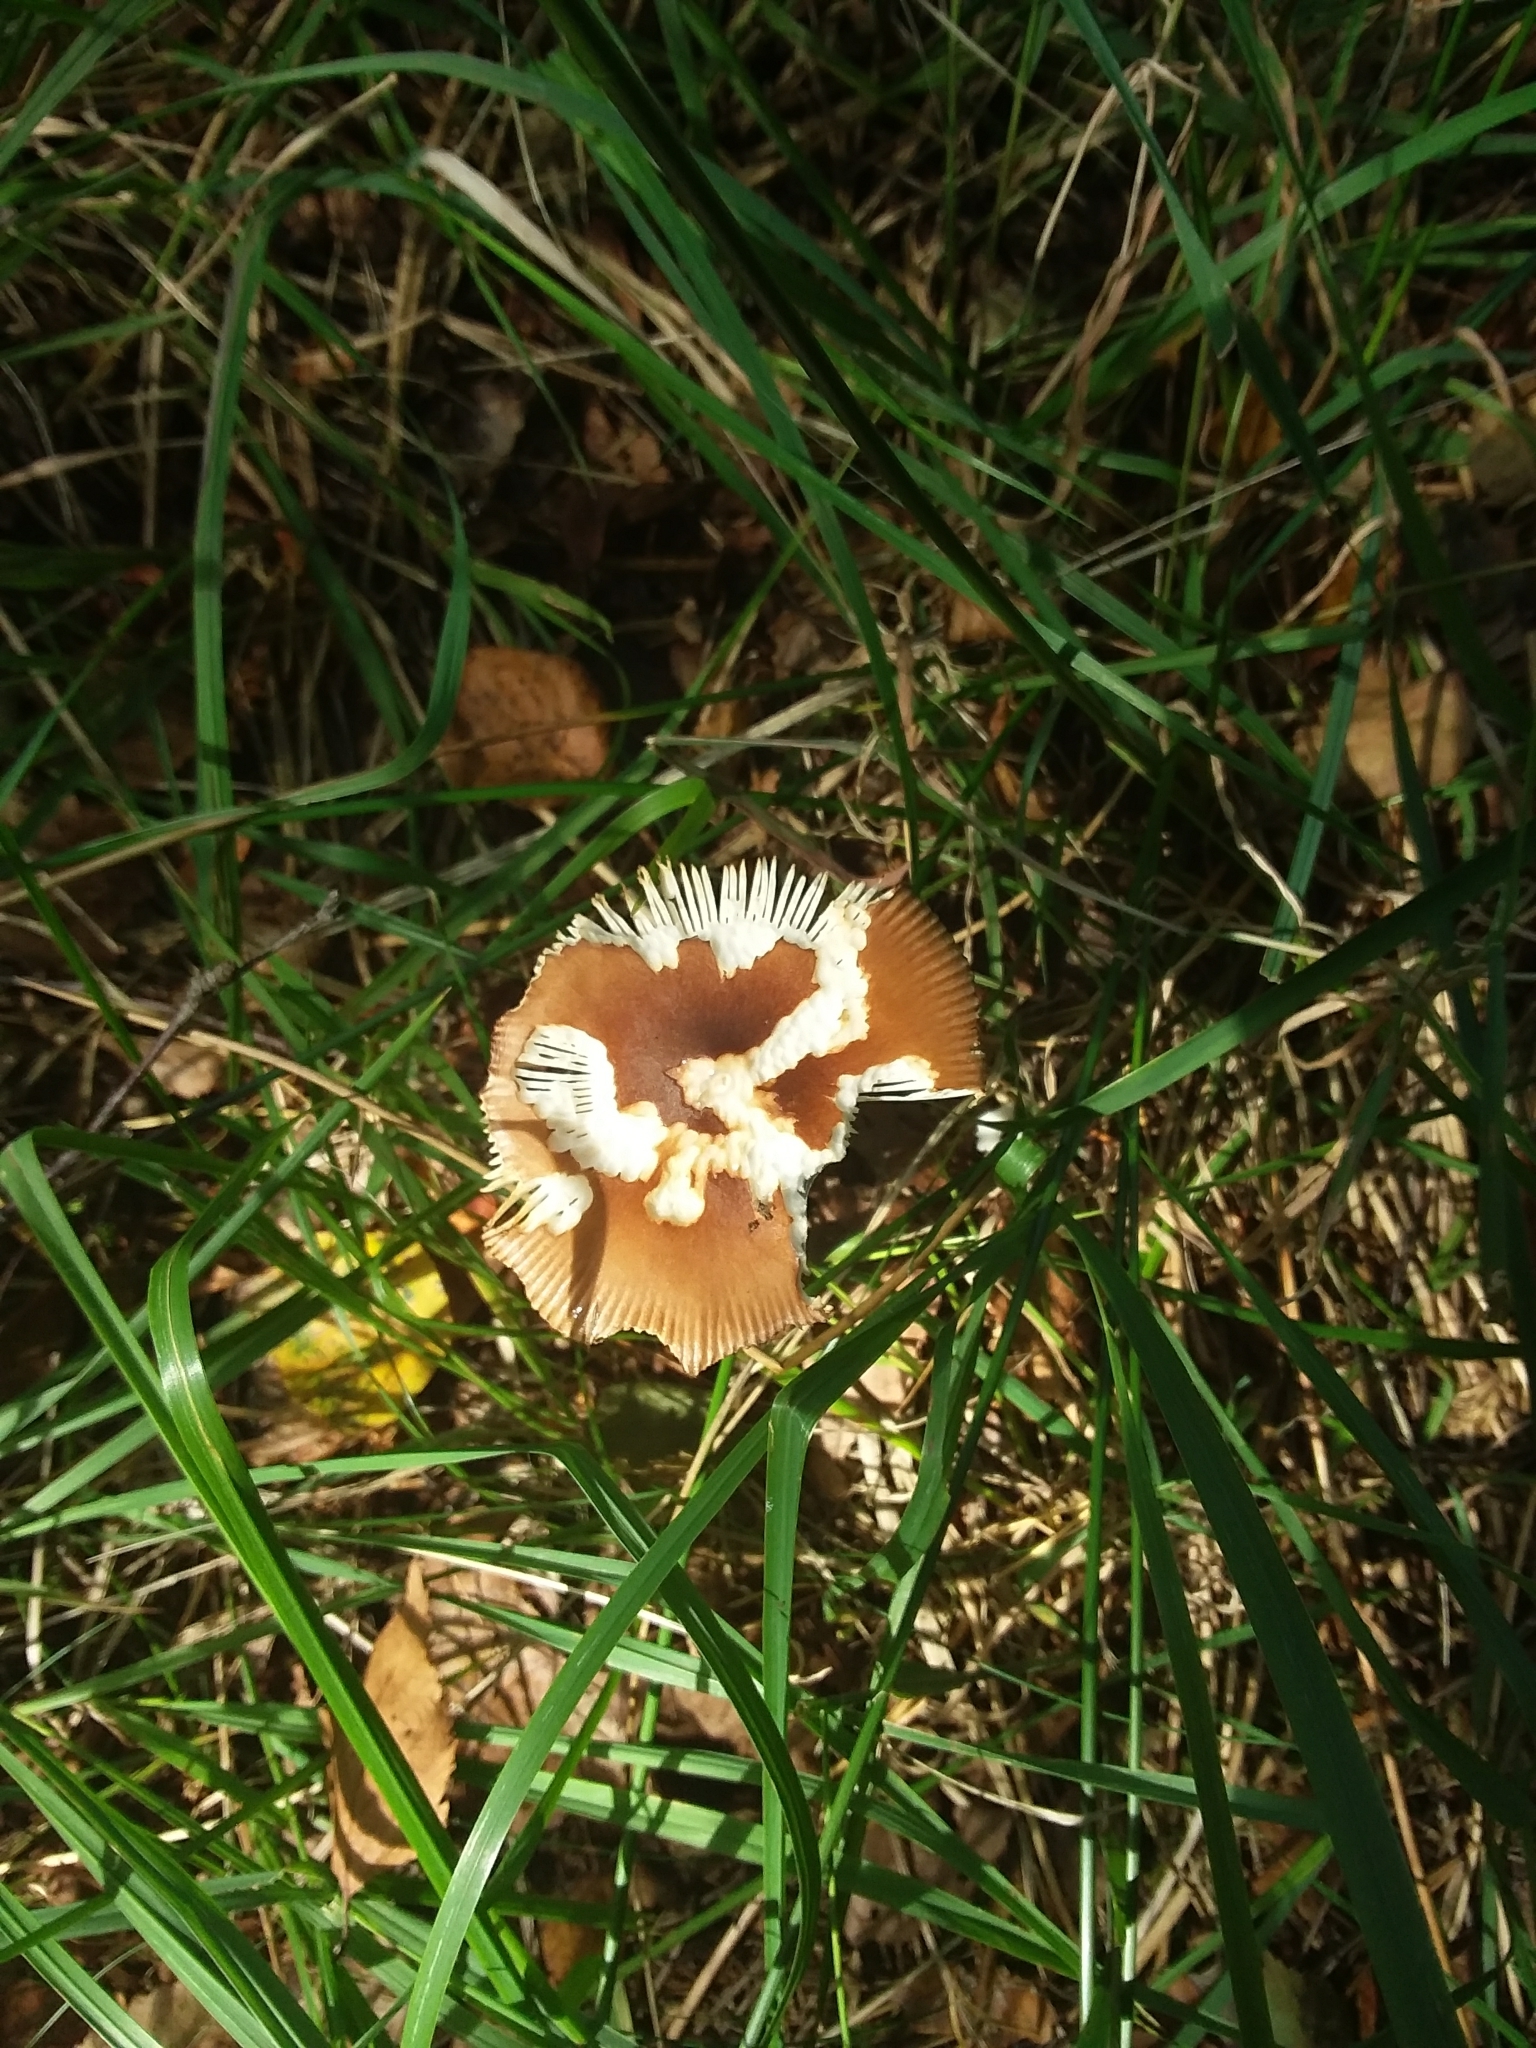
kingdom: Fungi
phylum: Basidiomycota
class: Agaricomycetes
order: Agaricales
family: Amanitaceae
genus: Amanita
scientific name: Amanita fulva
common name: Tawny grisette
